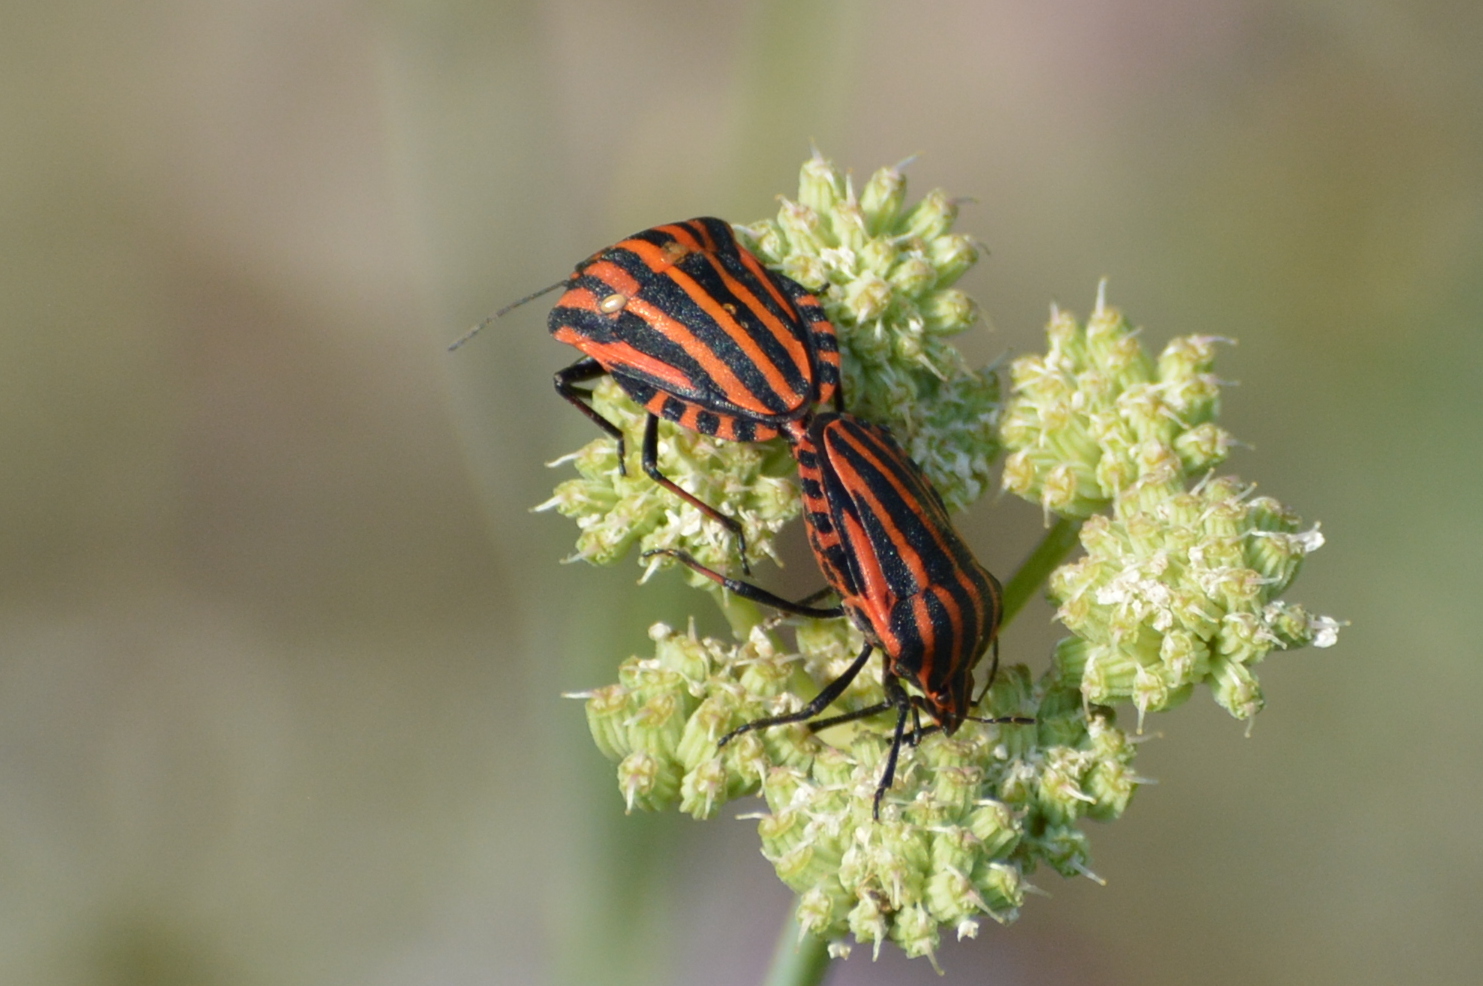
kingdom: Animalia
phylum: Arthropoda
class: Insecta
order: Hemiptera
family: Pentatomidae
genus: Graphosoma
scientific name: Graphosoma italicum
